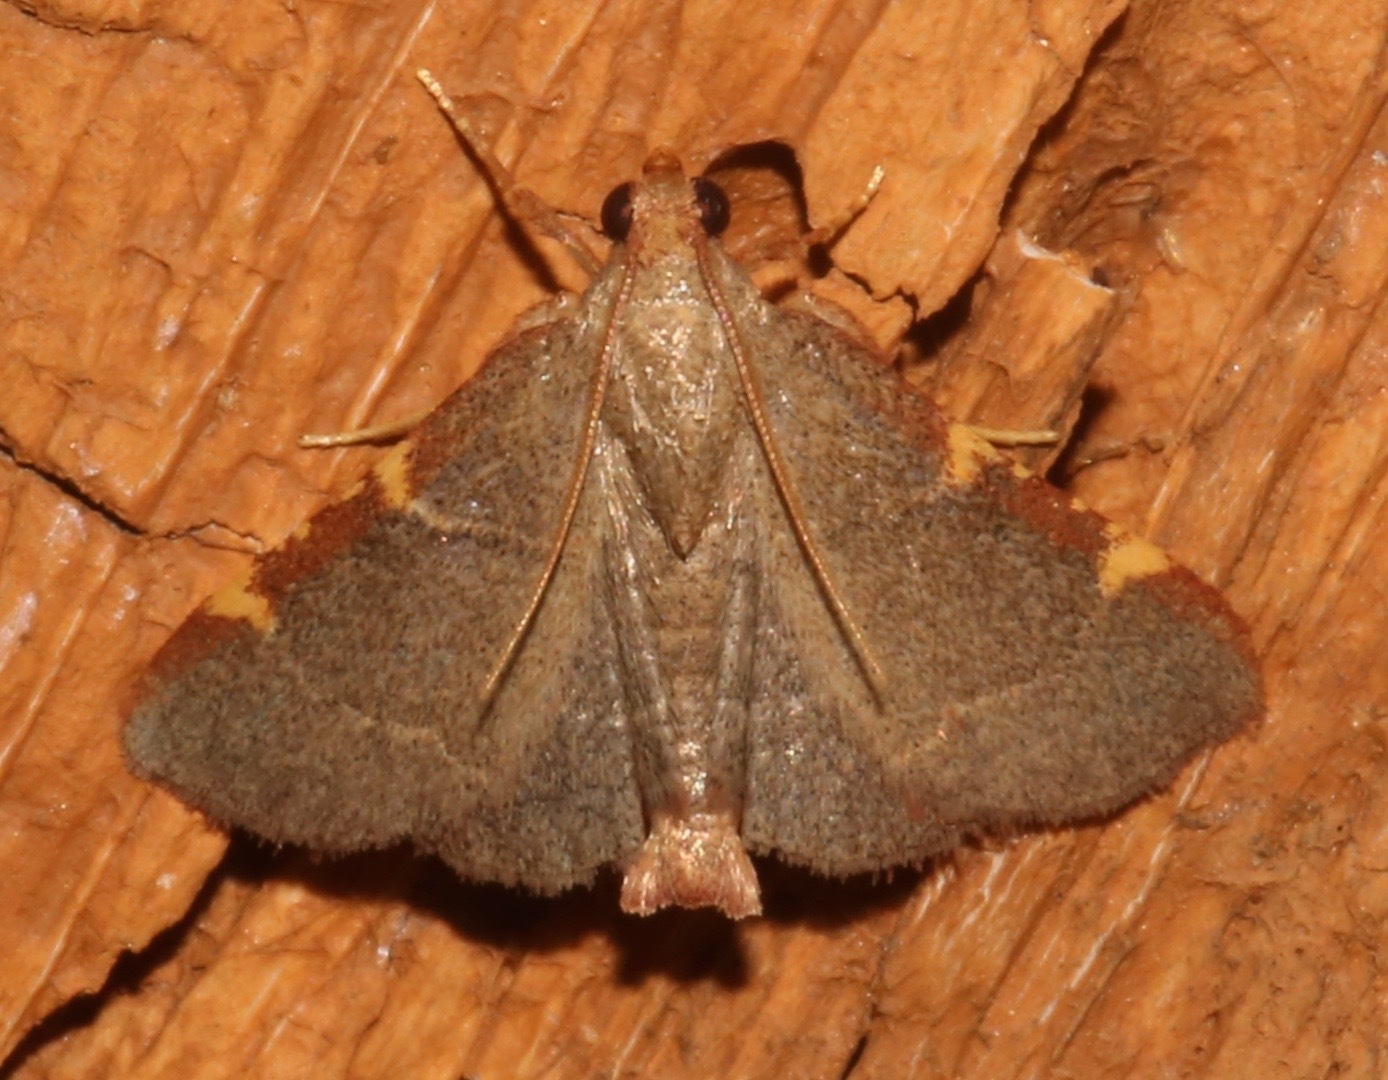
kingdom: Animalia
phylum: Arthropoda
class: Insecta
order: Lepidoptera
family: Pyralidae
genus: Hypsopygia
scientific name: Hypsopygia binodulalis
